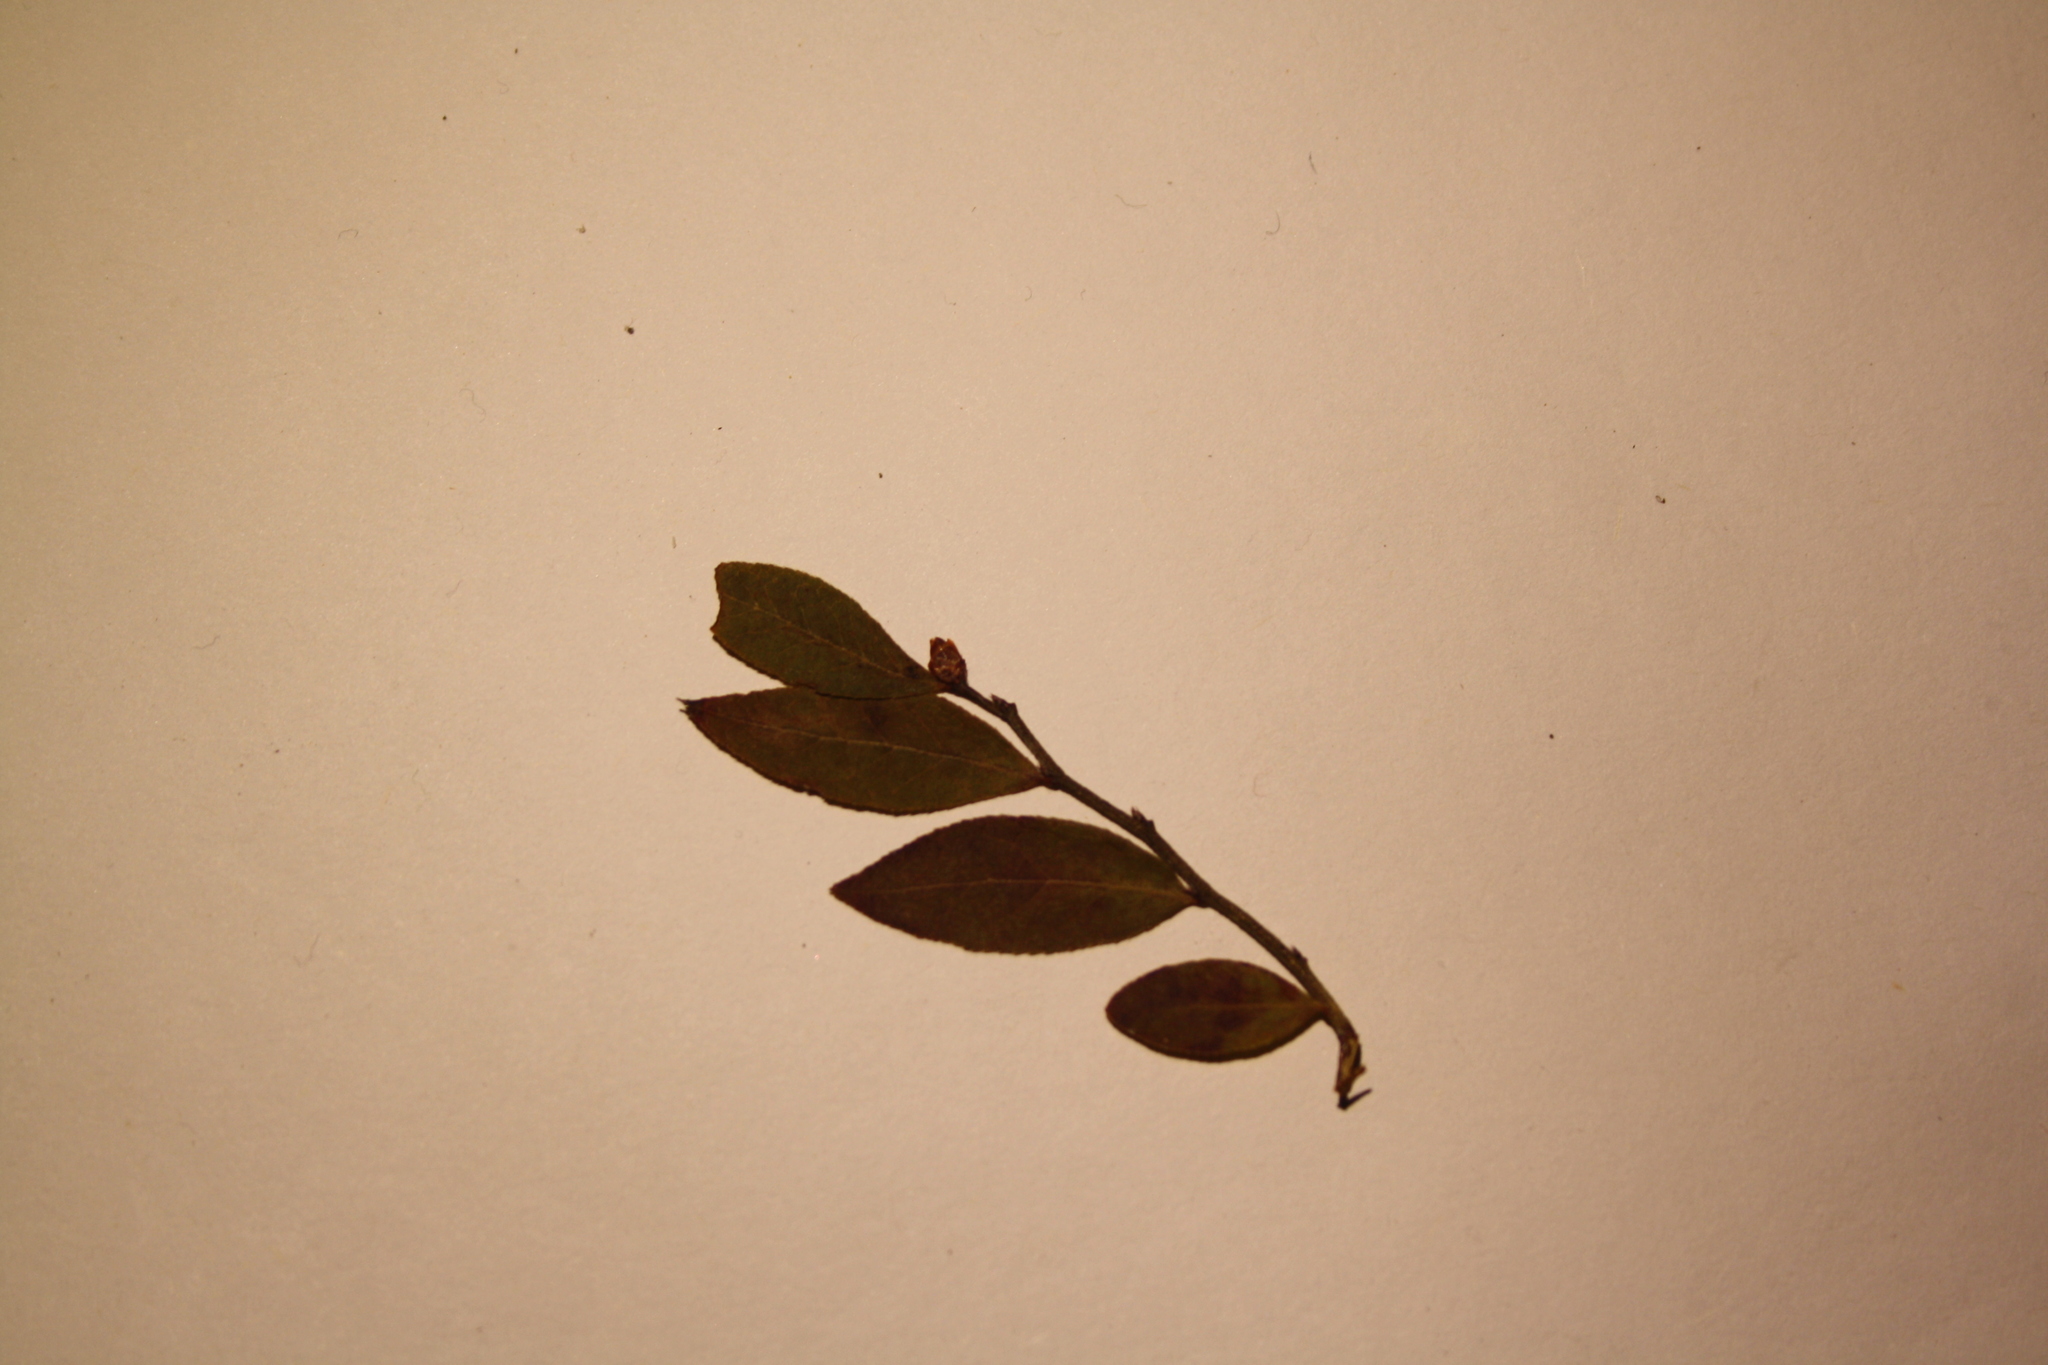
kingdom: Plantae
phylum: Tracheophyta
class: Magnoliopsida
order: Ericales
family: Ericaceae
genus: Vaccinium
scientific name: Vaccinium angustifolium
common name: Early lowbush blueberry
